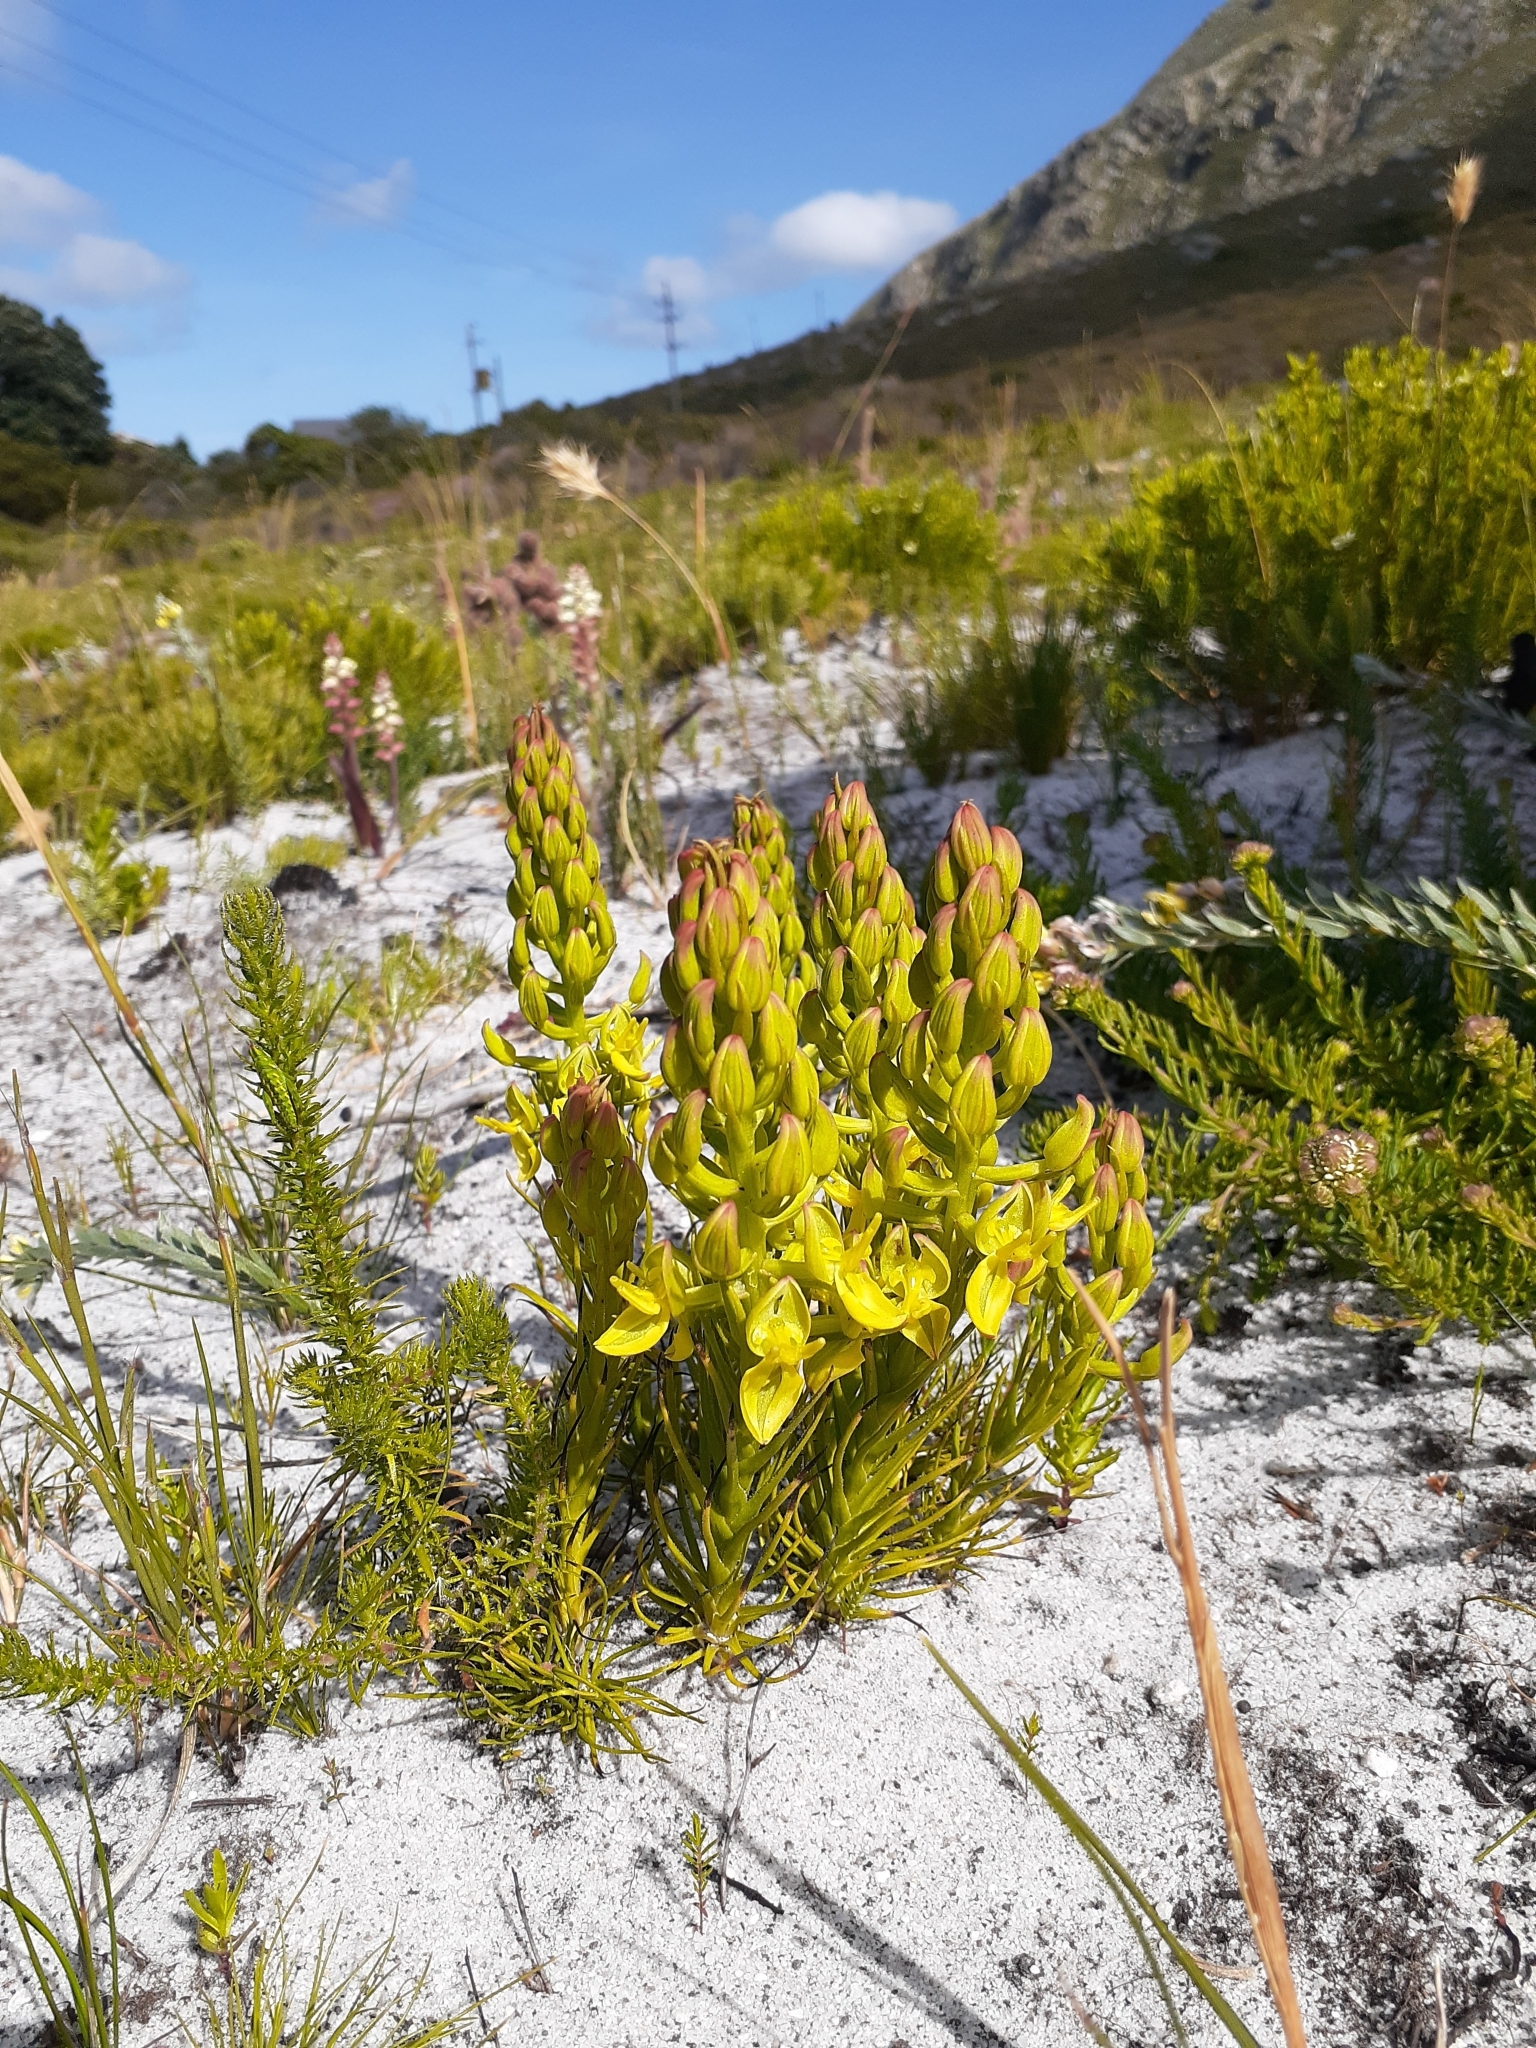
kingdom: Plantae
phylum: Tracheophyta
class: Liliopsida
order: Asparagales
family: Orchidaceae
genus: Ceratandra
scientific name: Ceratandra atrata
